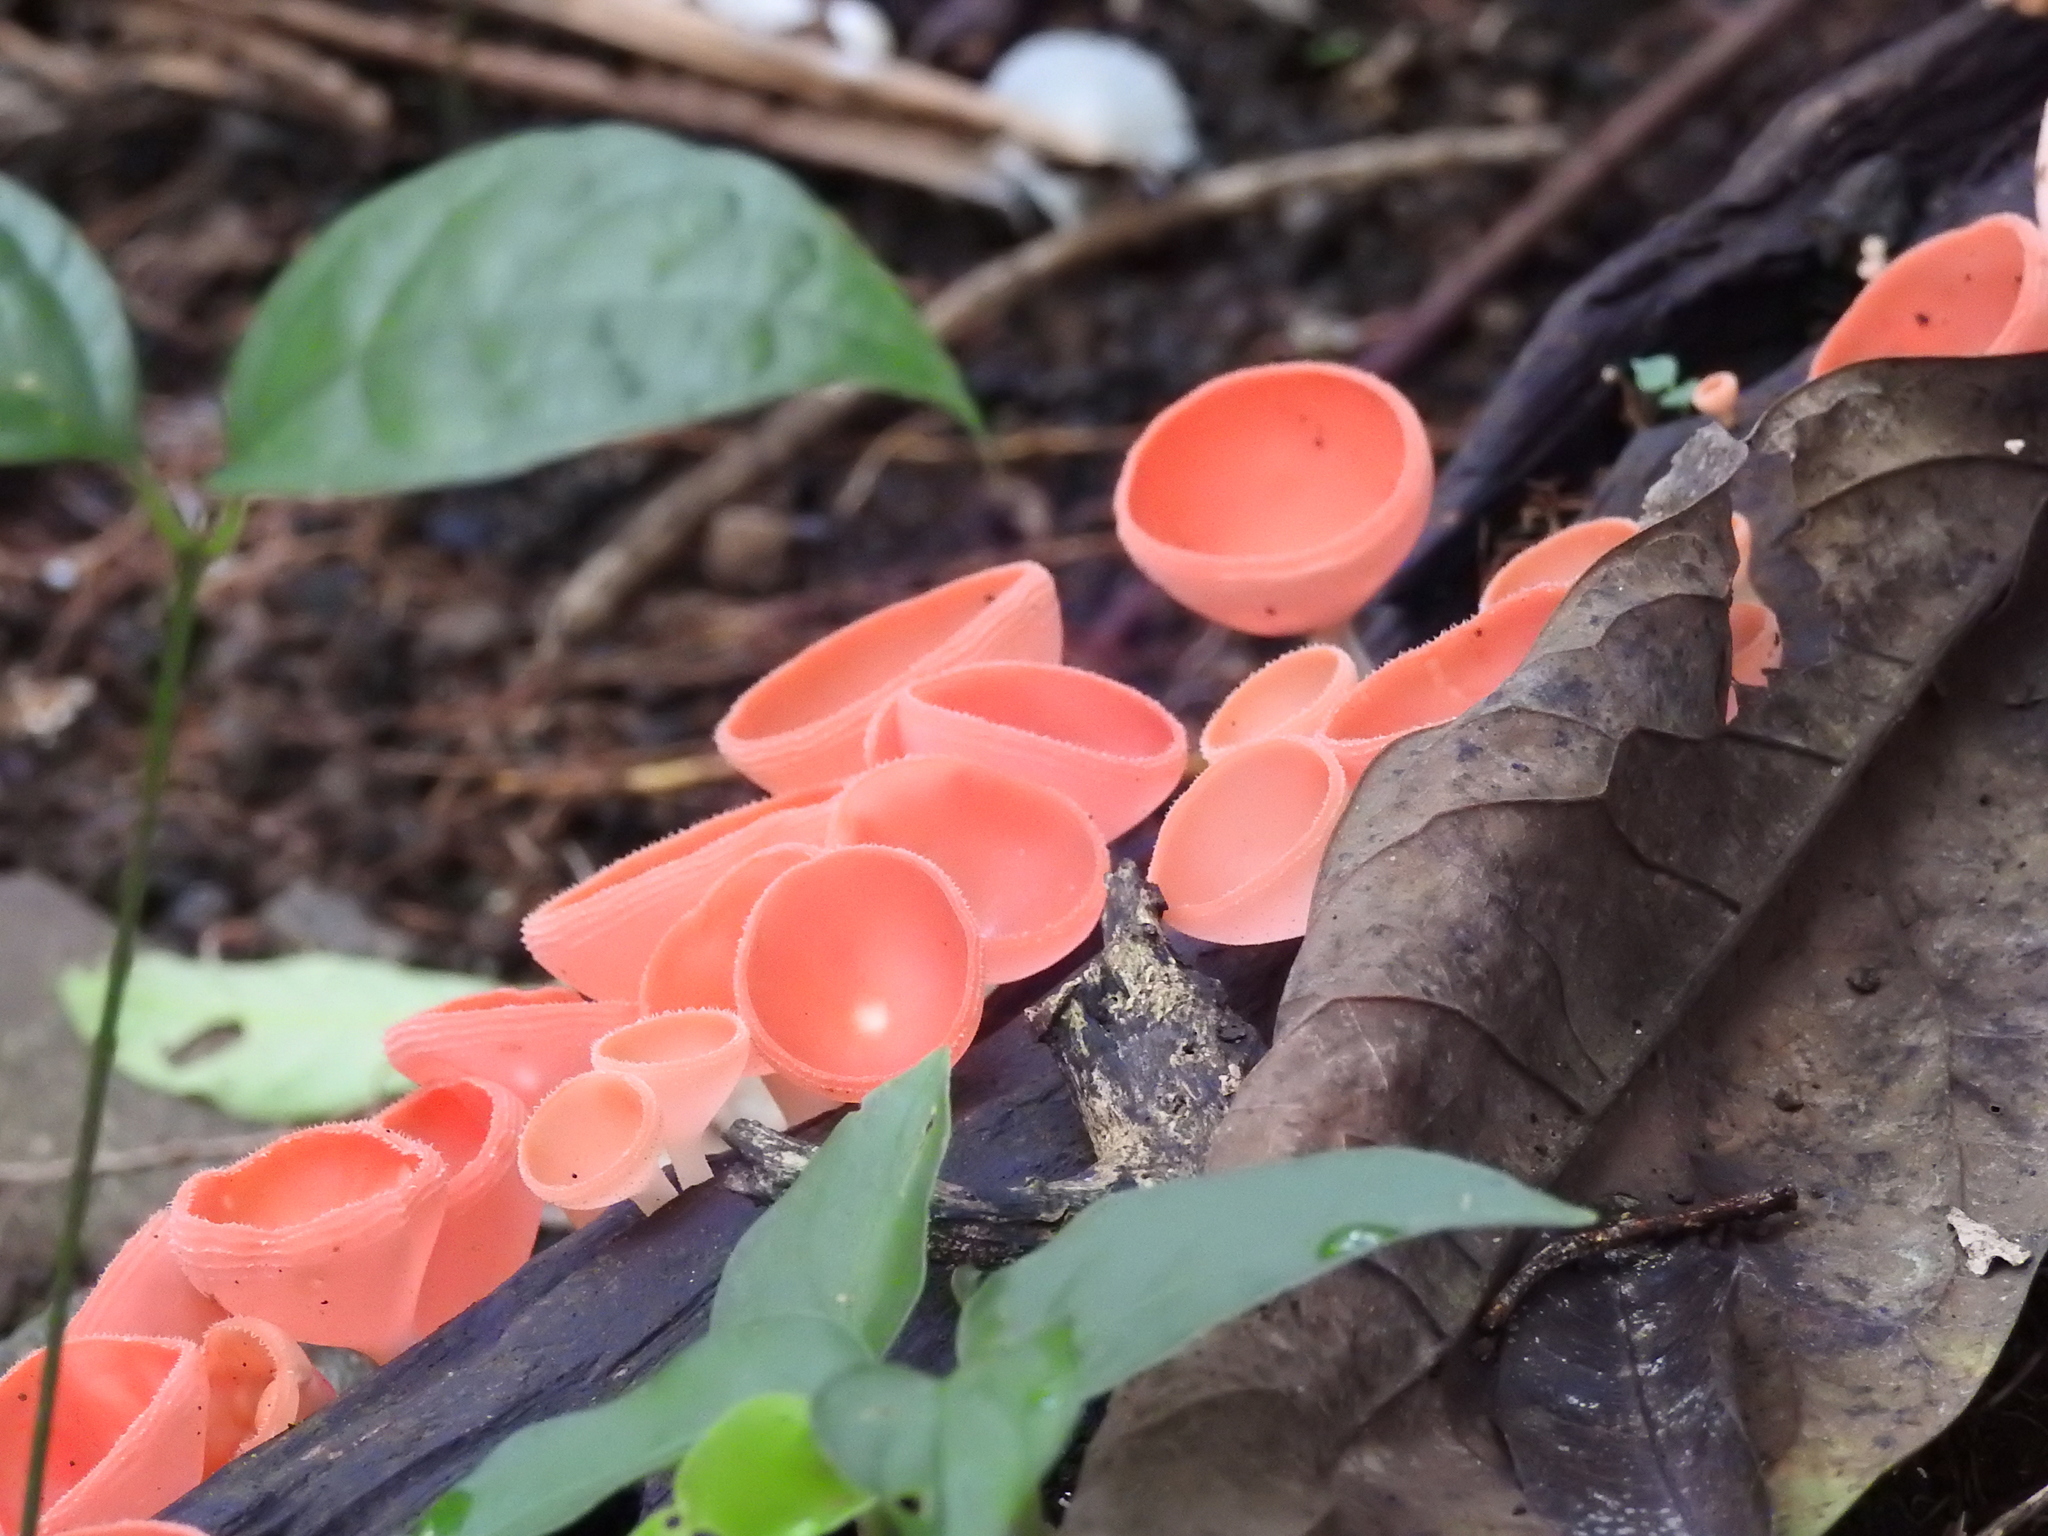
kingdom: Fungi
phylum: Ascomycota
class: Pezizomycetes
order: Pezizales
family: Sarcoscyphaceae
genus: Cookeina
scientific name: Cookeina speciosa
